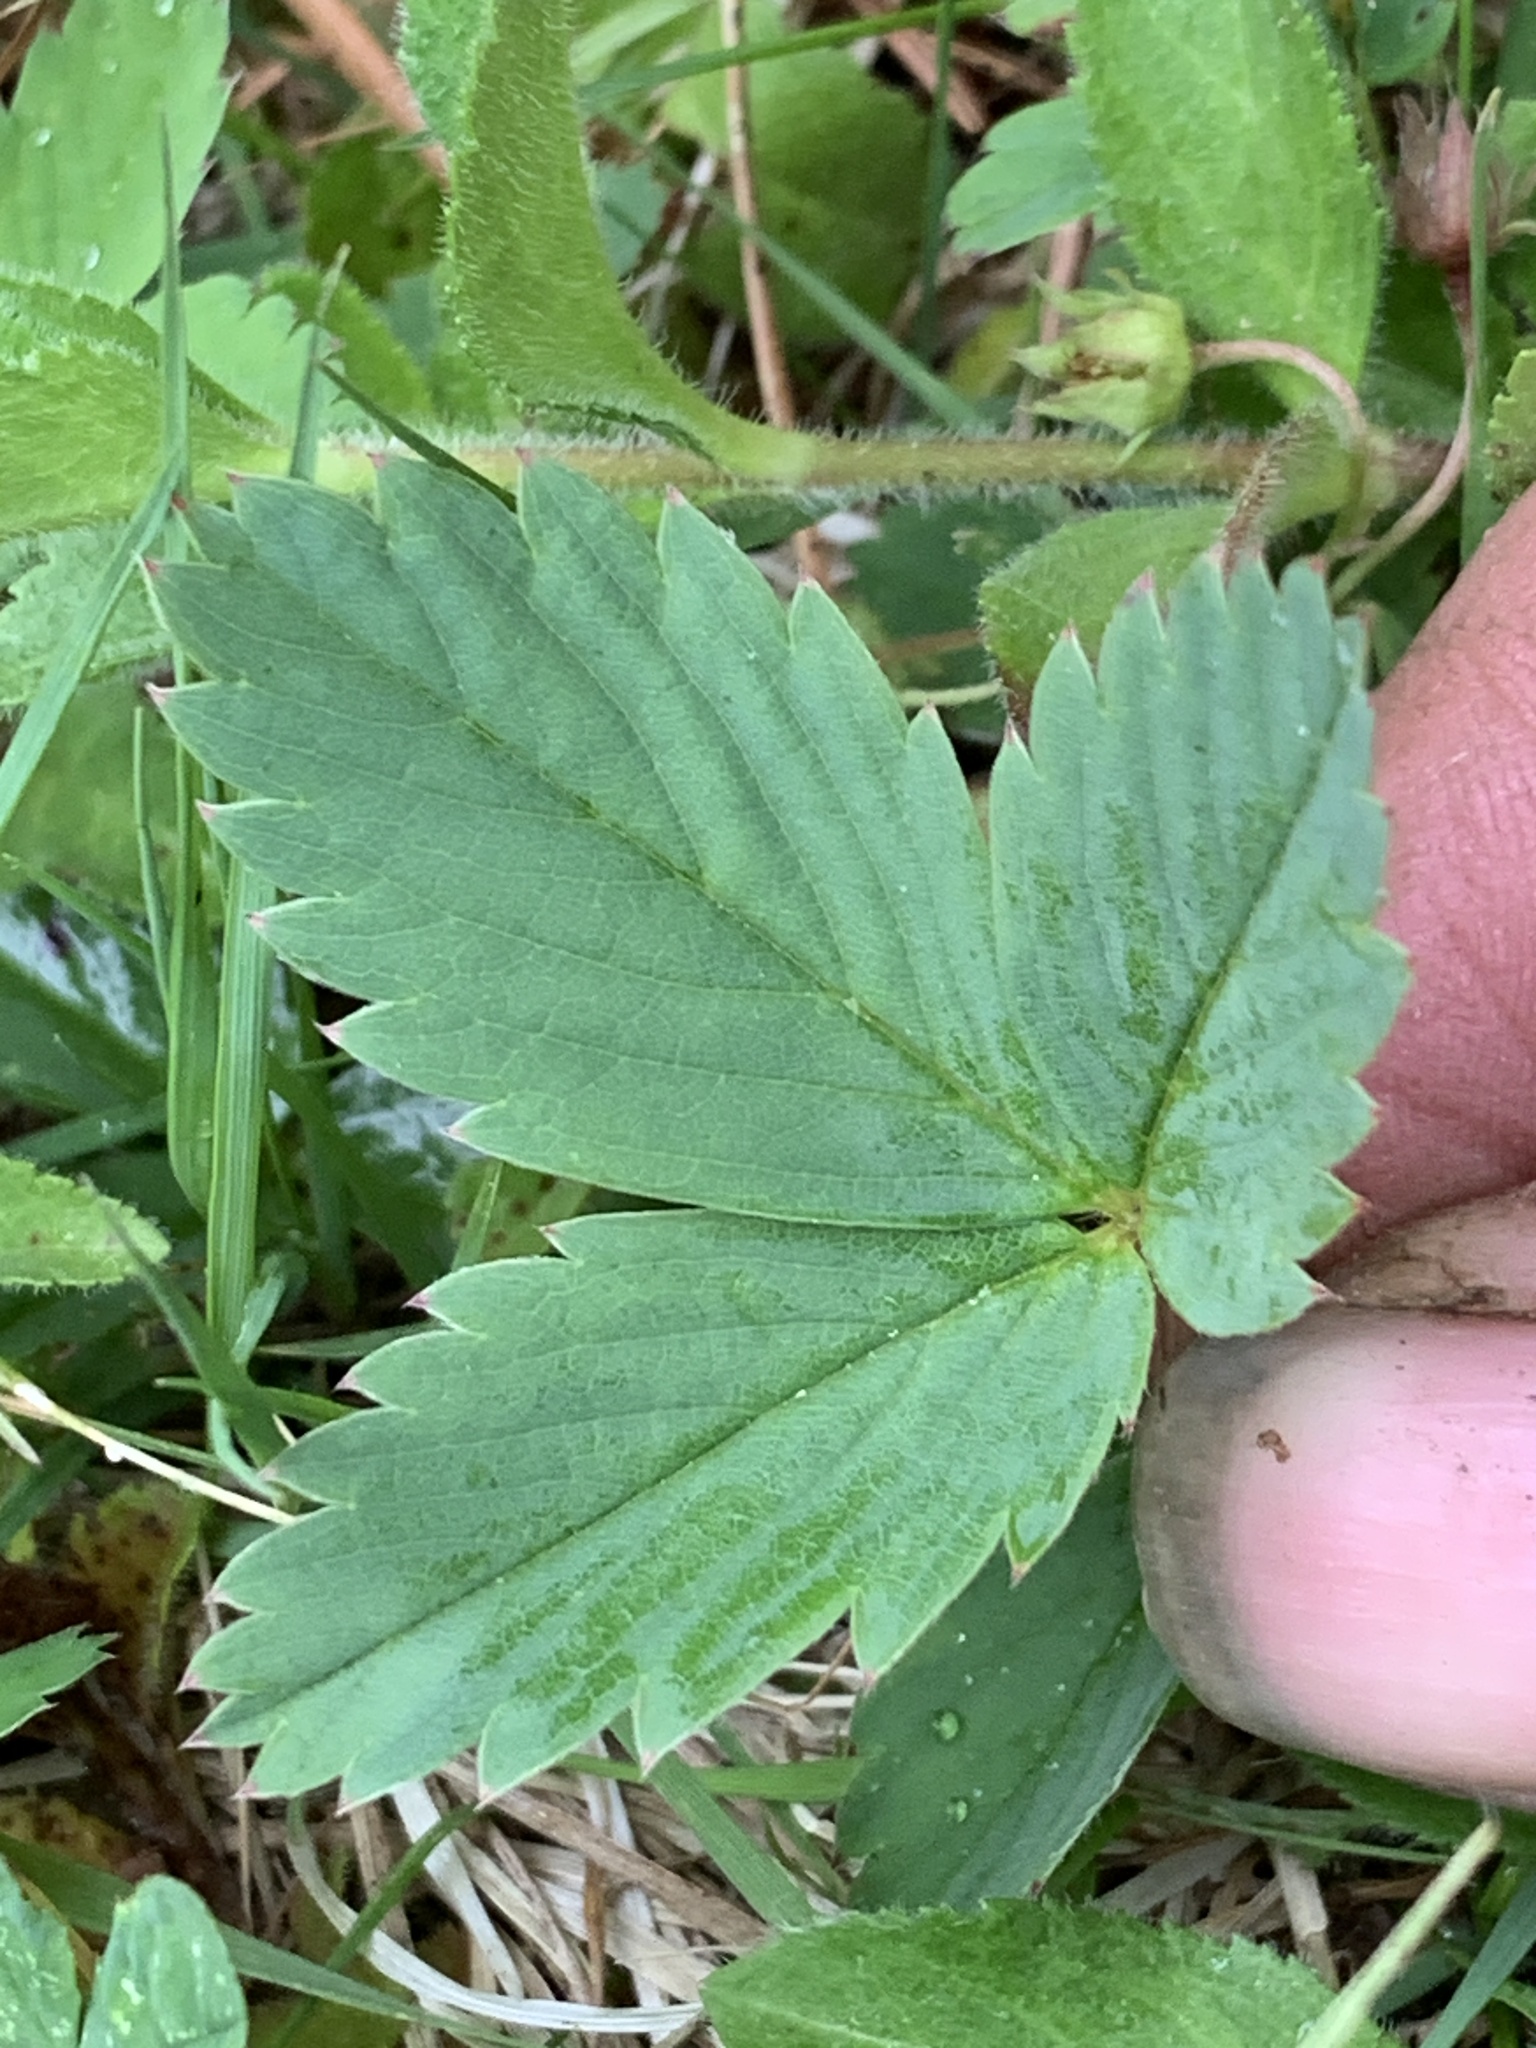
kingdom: Plantae
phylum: Tracheophyta
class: Magnoliopsida
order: Rosales
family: Rosaceae
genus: Fragaria
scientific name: Fragaria vesca
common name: Wild strawberry
